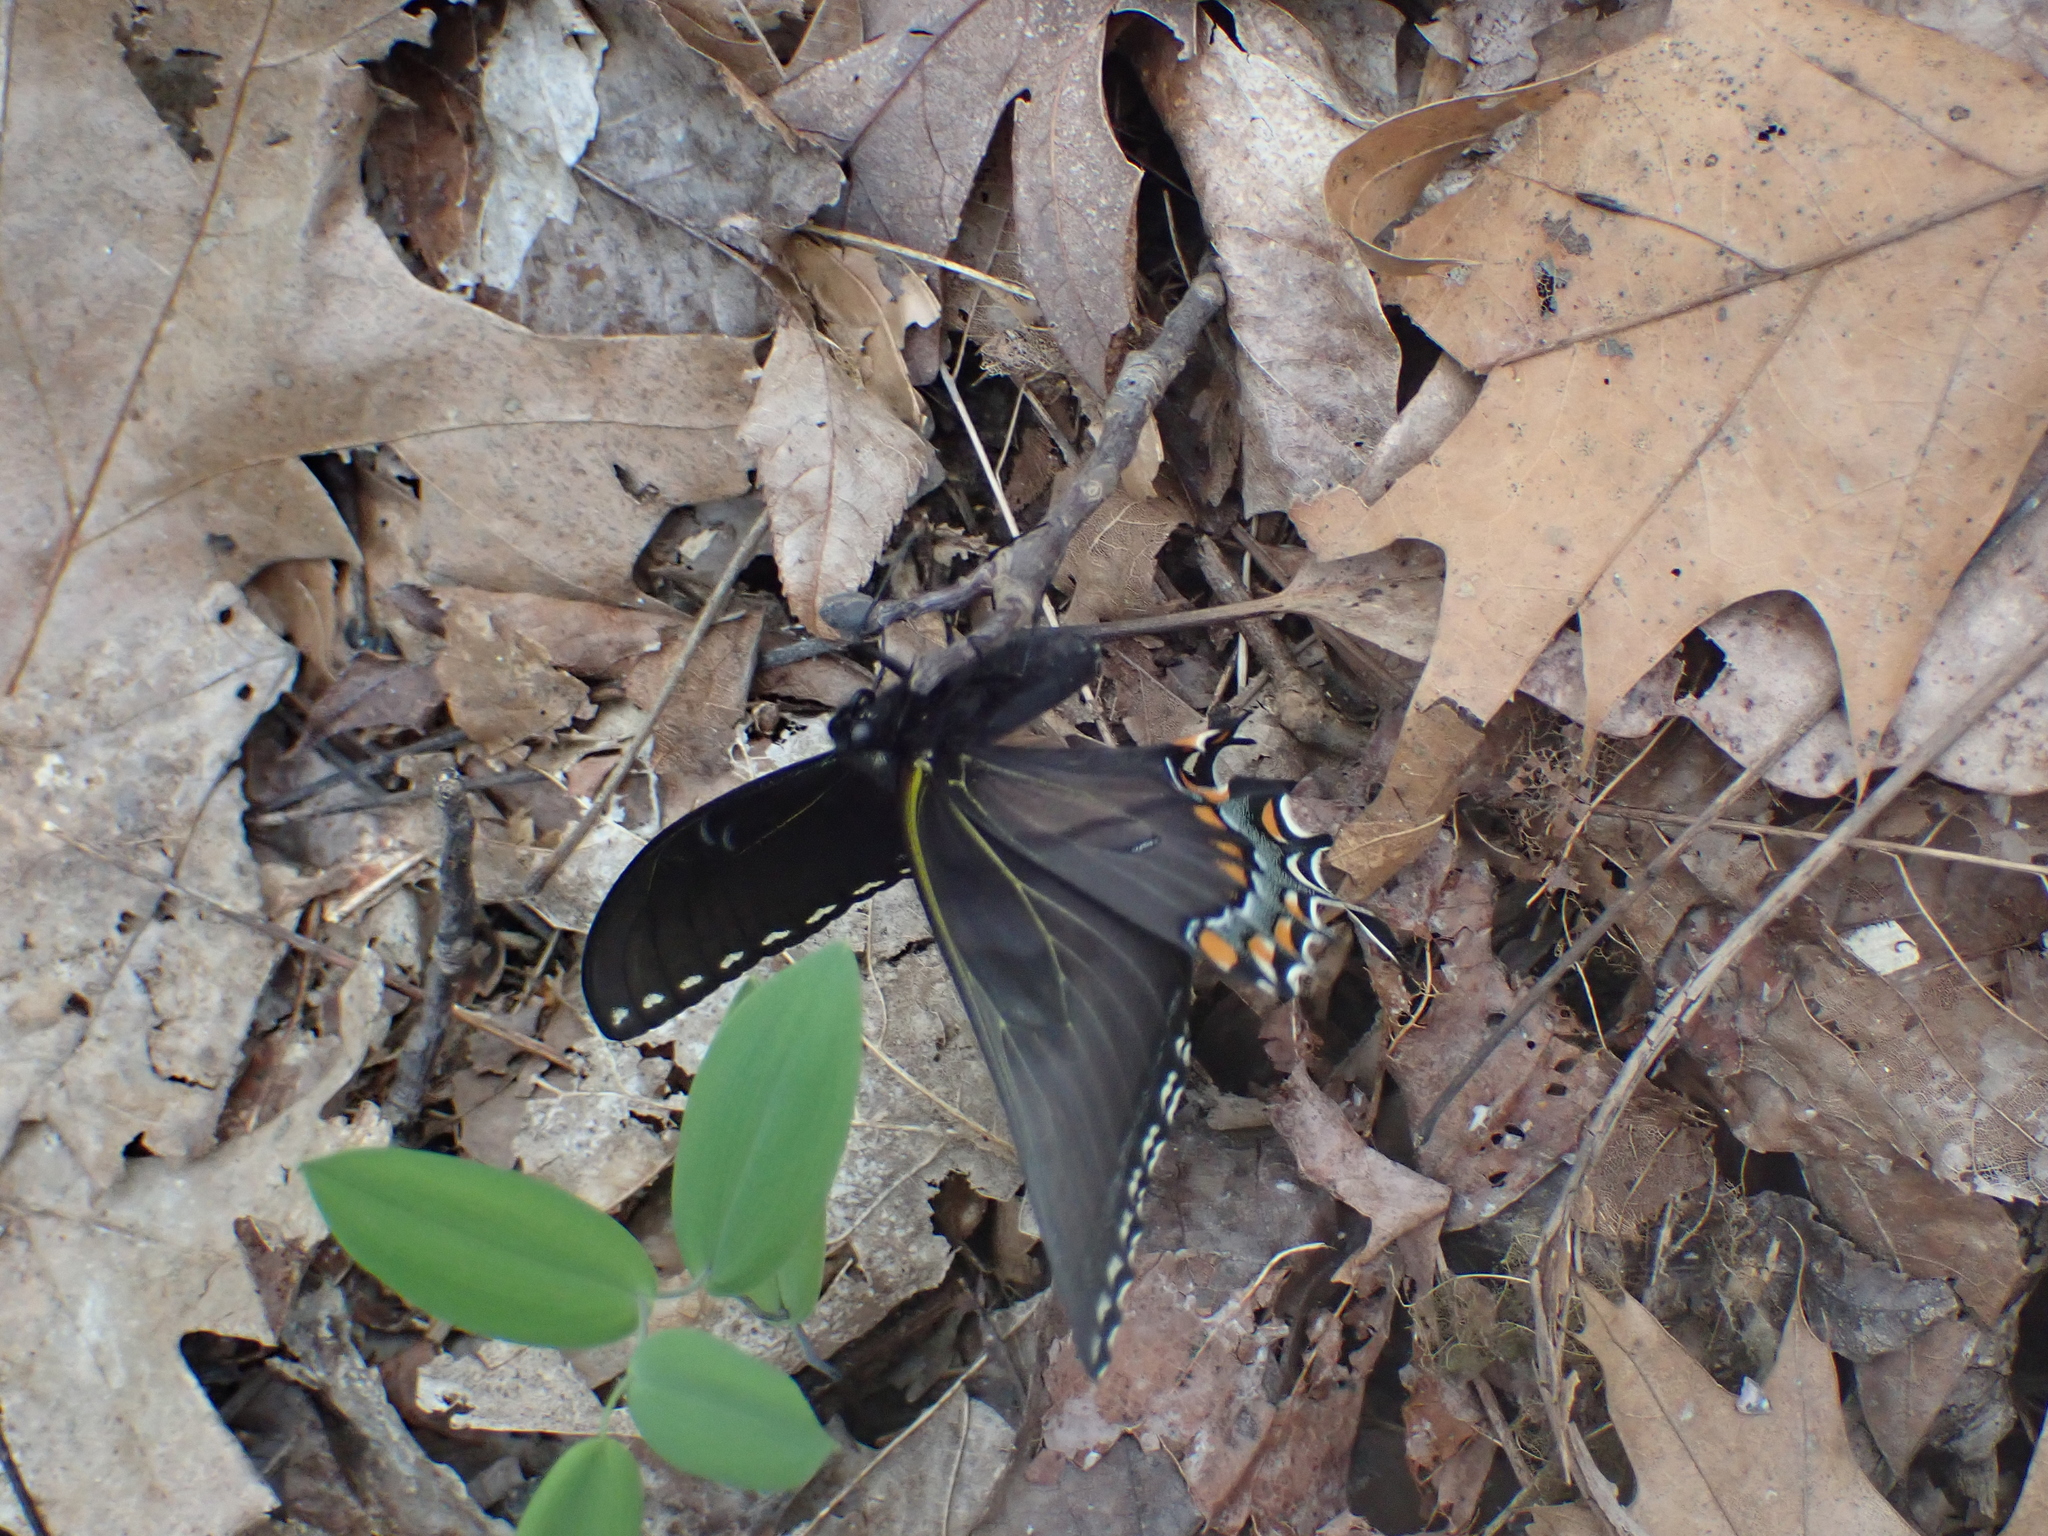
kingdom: Animalia
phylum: Arthropoda
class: Insecta
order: Lepidoptera
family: Papilionidae
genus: Papilio
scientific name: Papilio glaucus
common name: Tiger swallowtail
